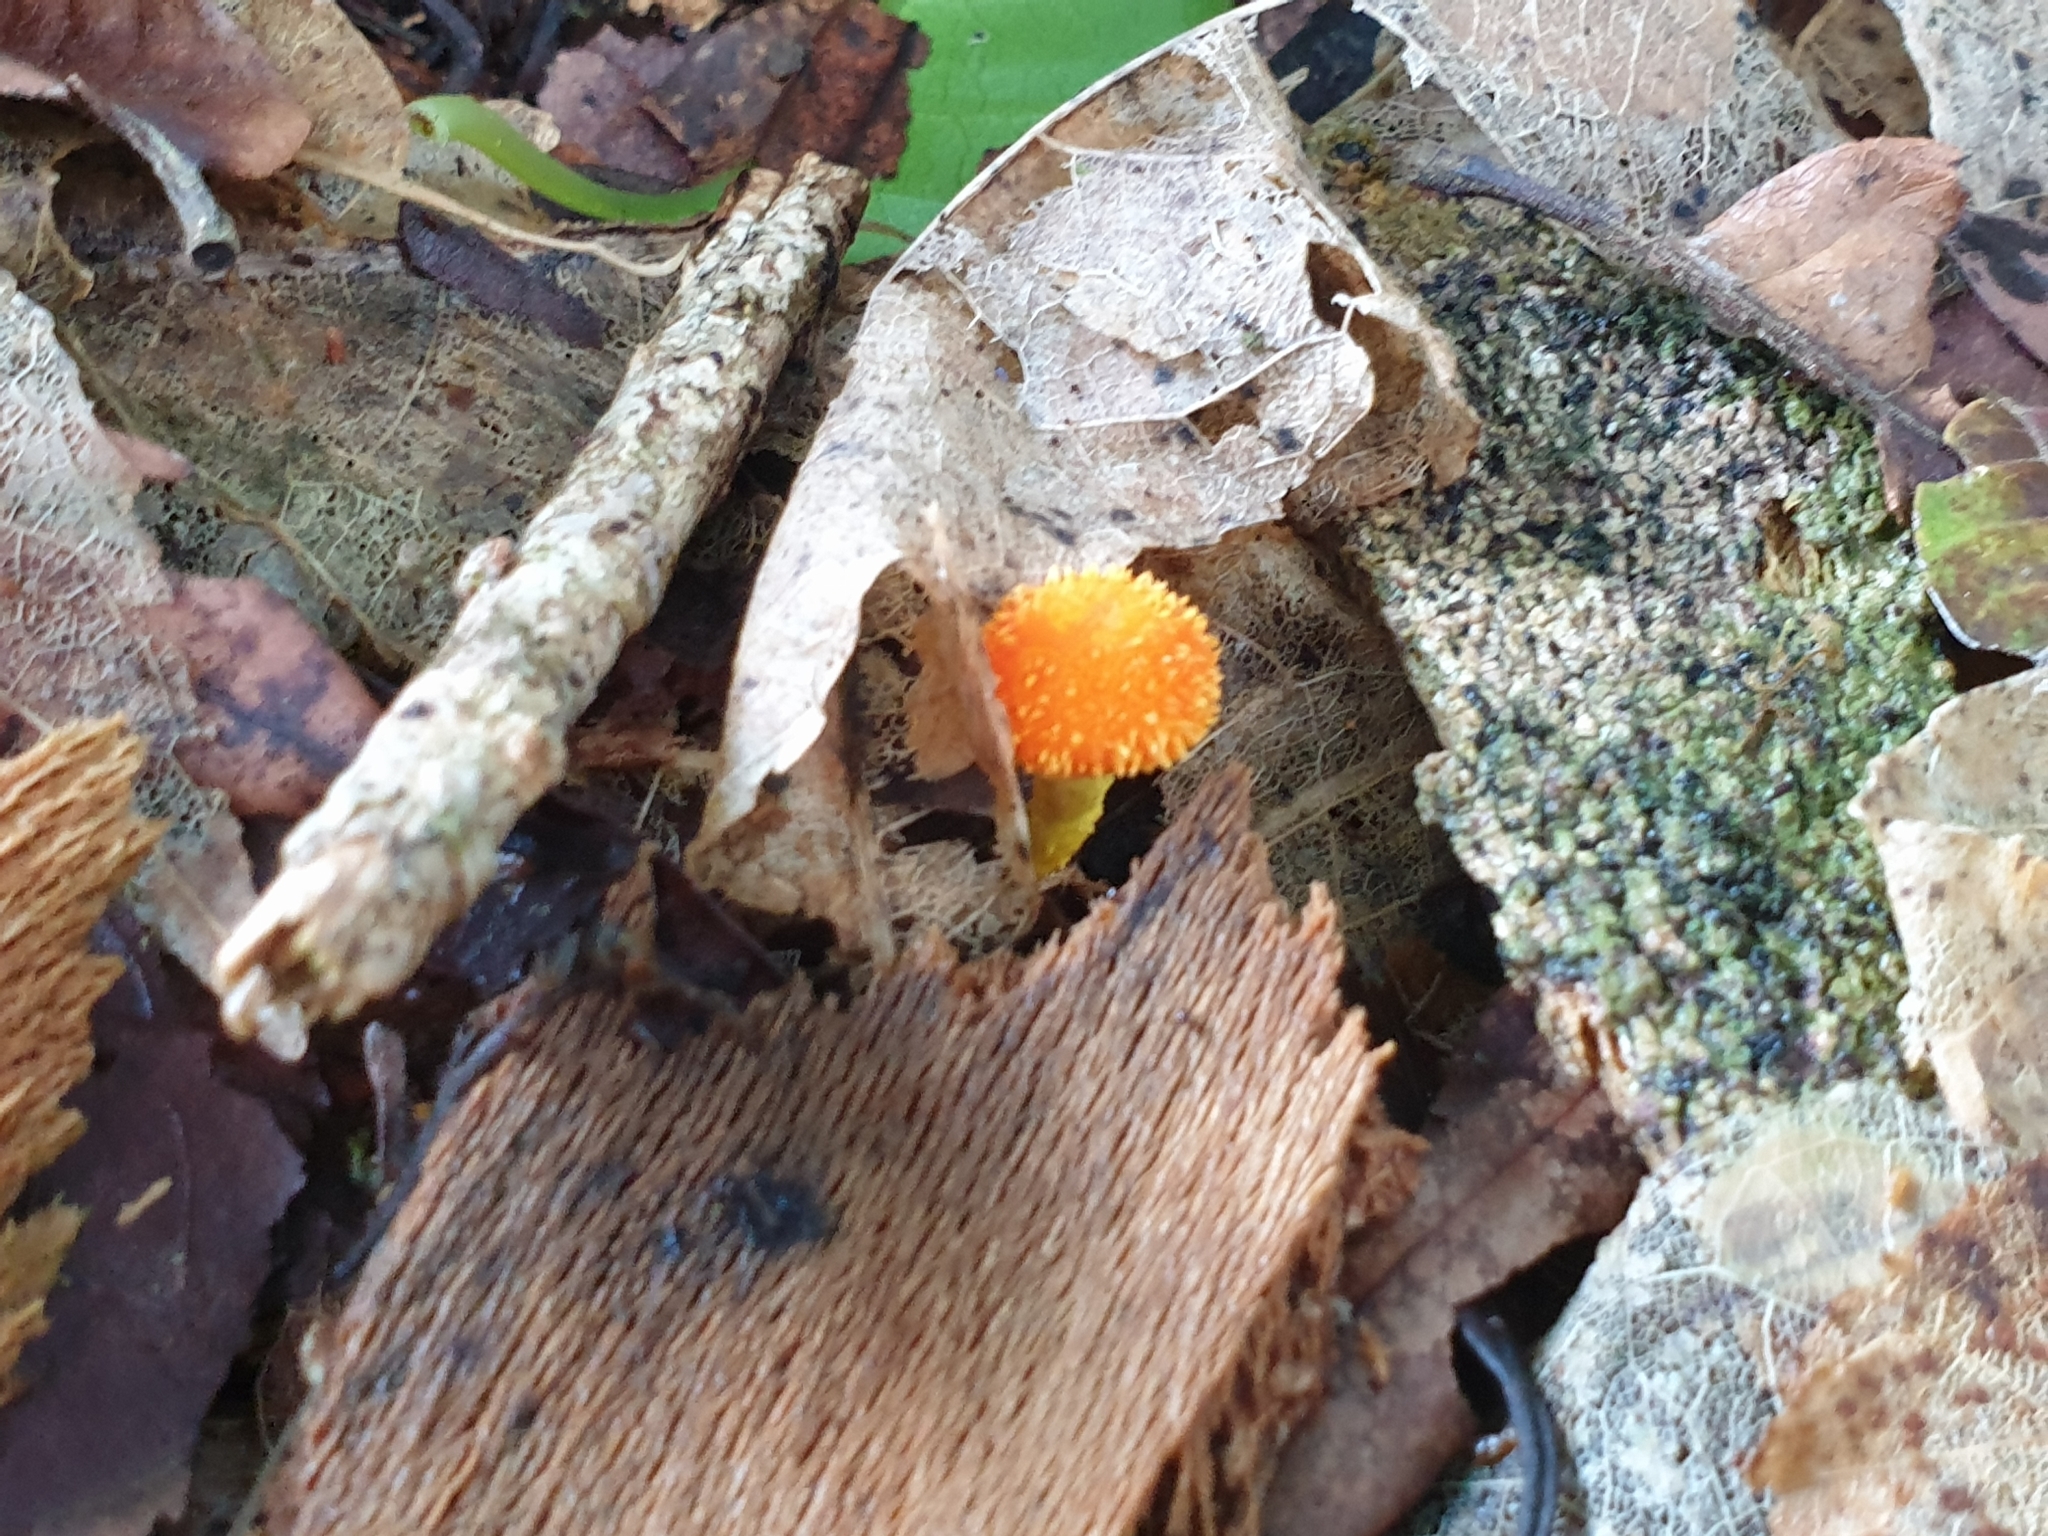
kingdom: Fungi
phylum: Basidiomycota
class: Agaricomycetes
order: Agaricales
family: Physalacriaceae
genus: Cyptotrama
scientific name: Cyptotrama asprata
